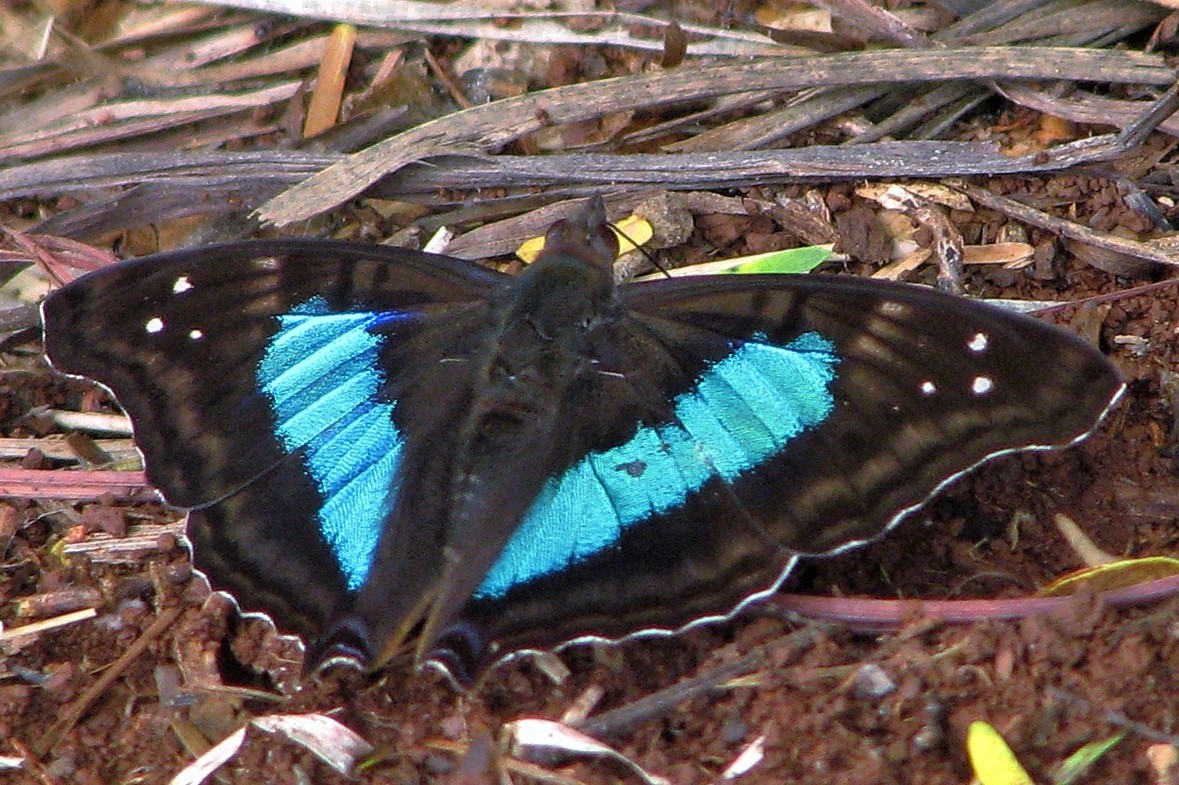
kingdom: Animalia
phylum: Arthropoda
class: Insecta
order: Lepidoptera
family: Nymphalidae
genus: Doxocopa
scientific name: Doxocopa laurentia
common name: Turquoise emperor
